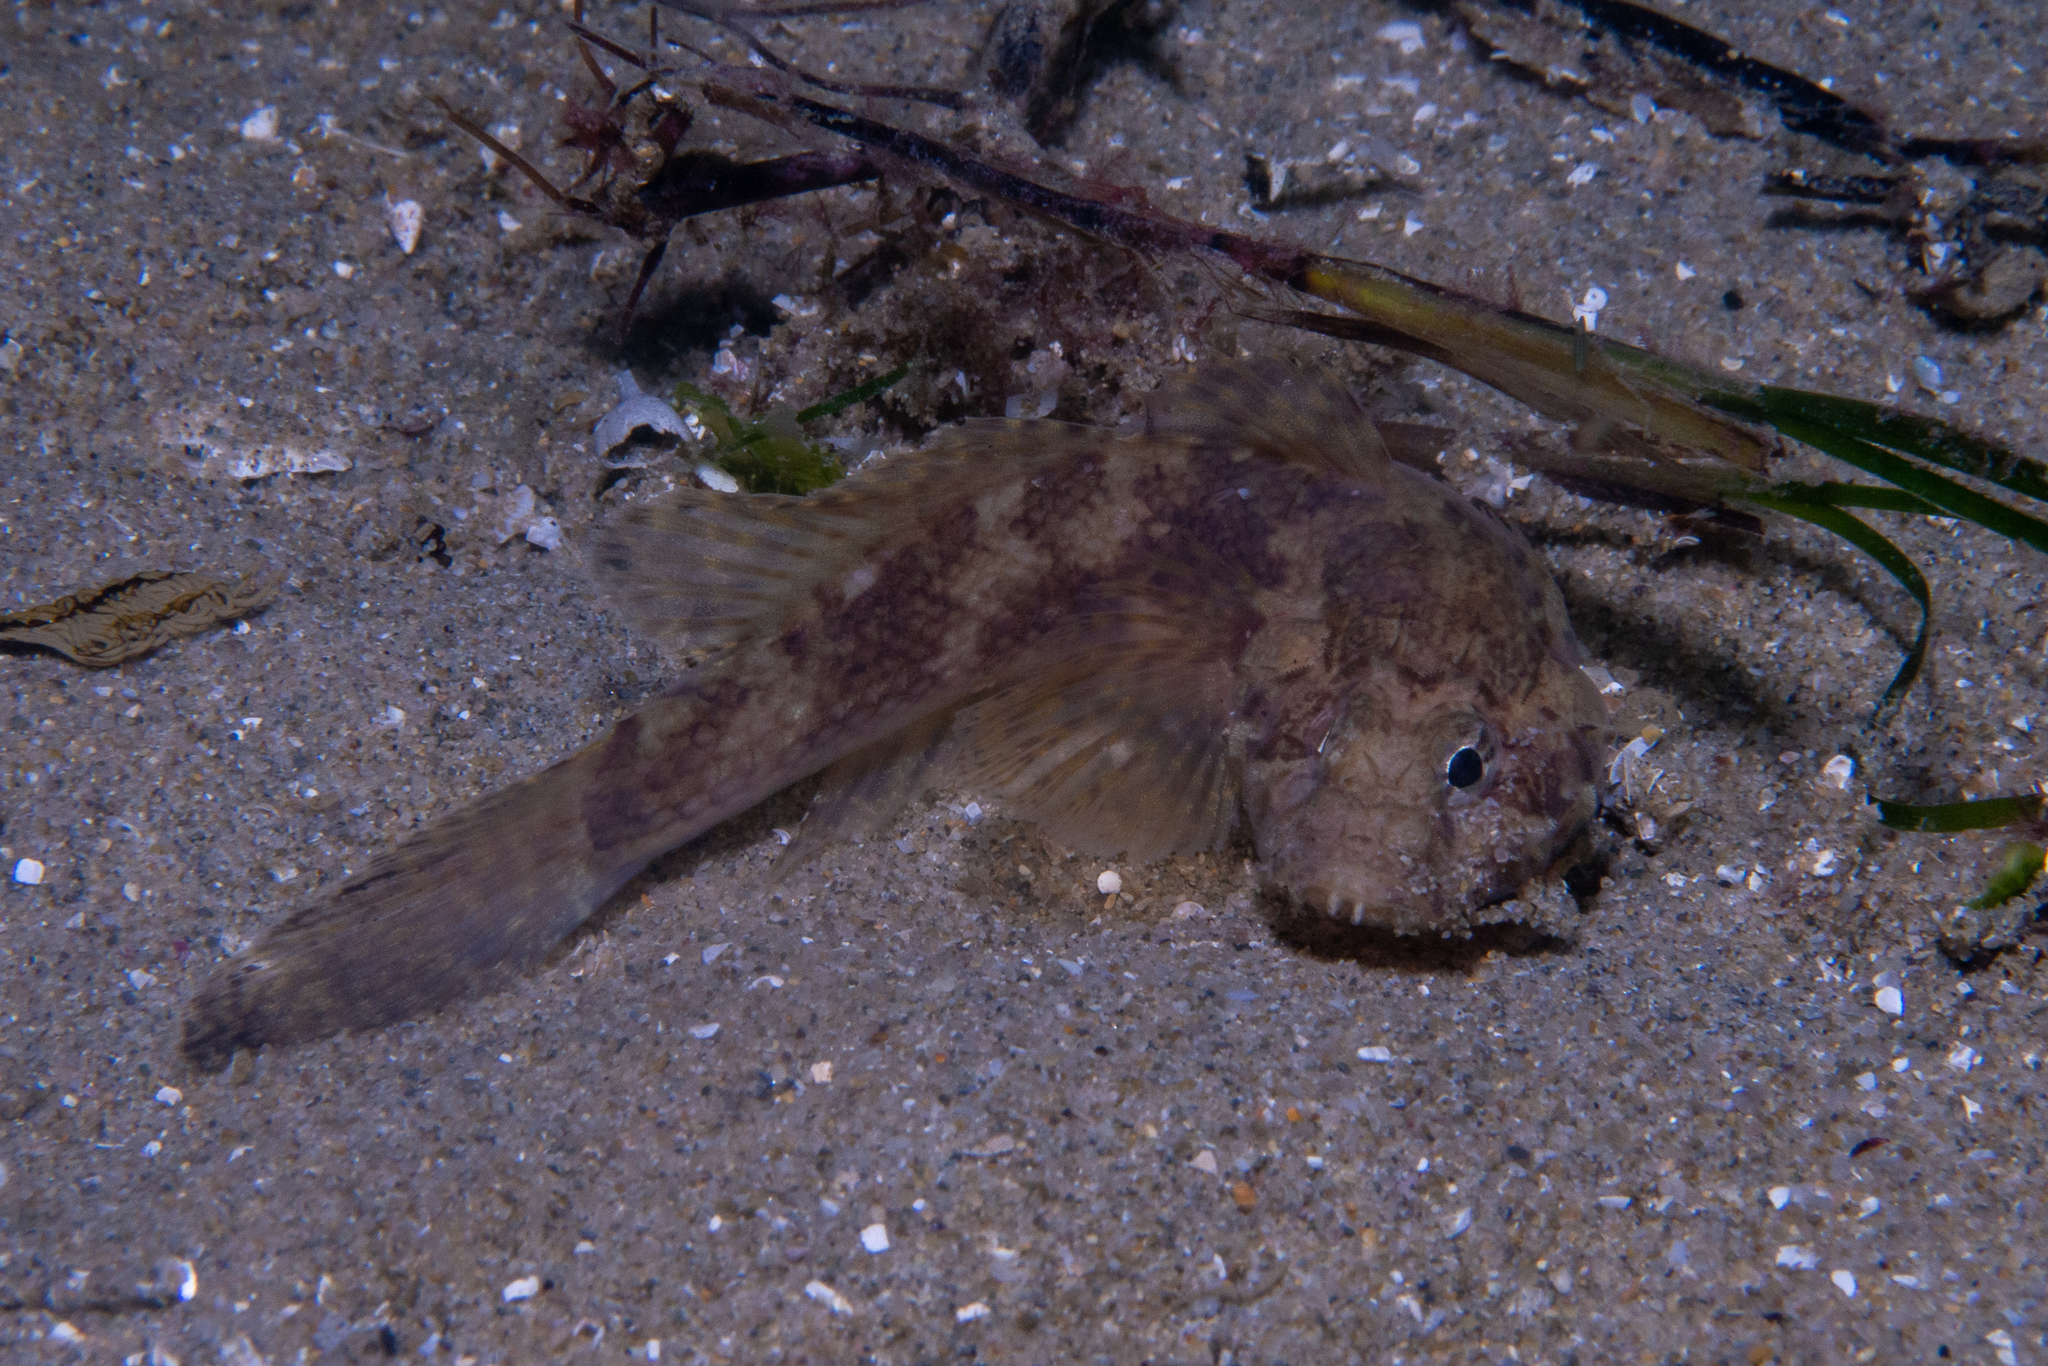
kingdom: Animalia
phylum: Chordata
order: Perciformes
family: Gobiidae
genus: Callogobius
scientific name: Callogobius mucosus
